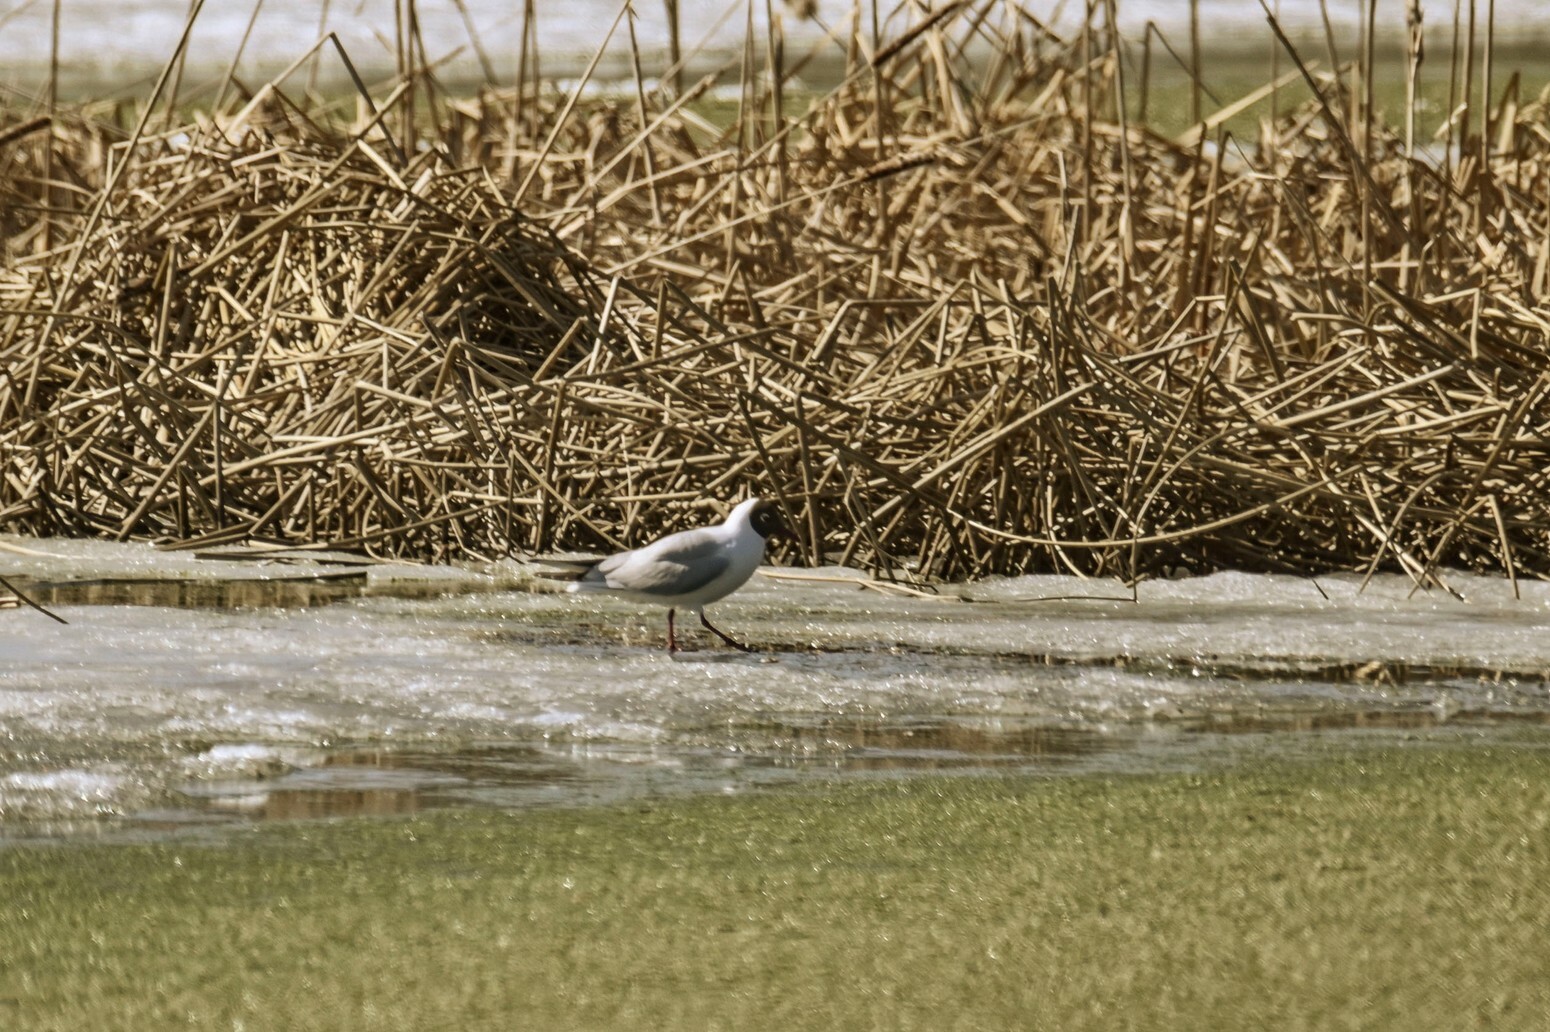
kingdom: Animalia
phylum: Chordata
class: Aves
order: Charadriiformes
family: Laridae
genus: Chroicocephalus
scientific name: Chroicocephalus ridibundus
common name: Black-headed gull
